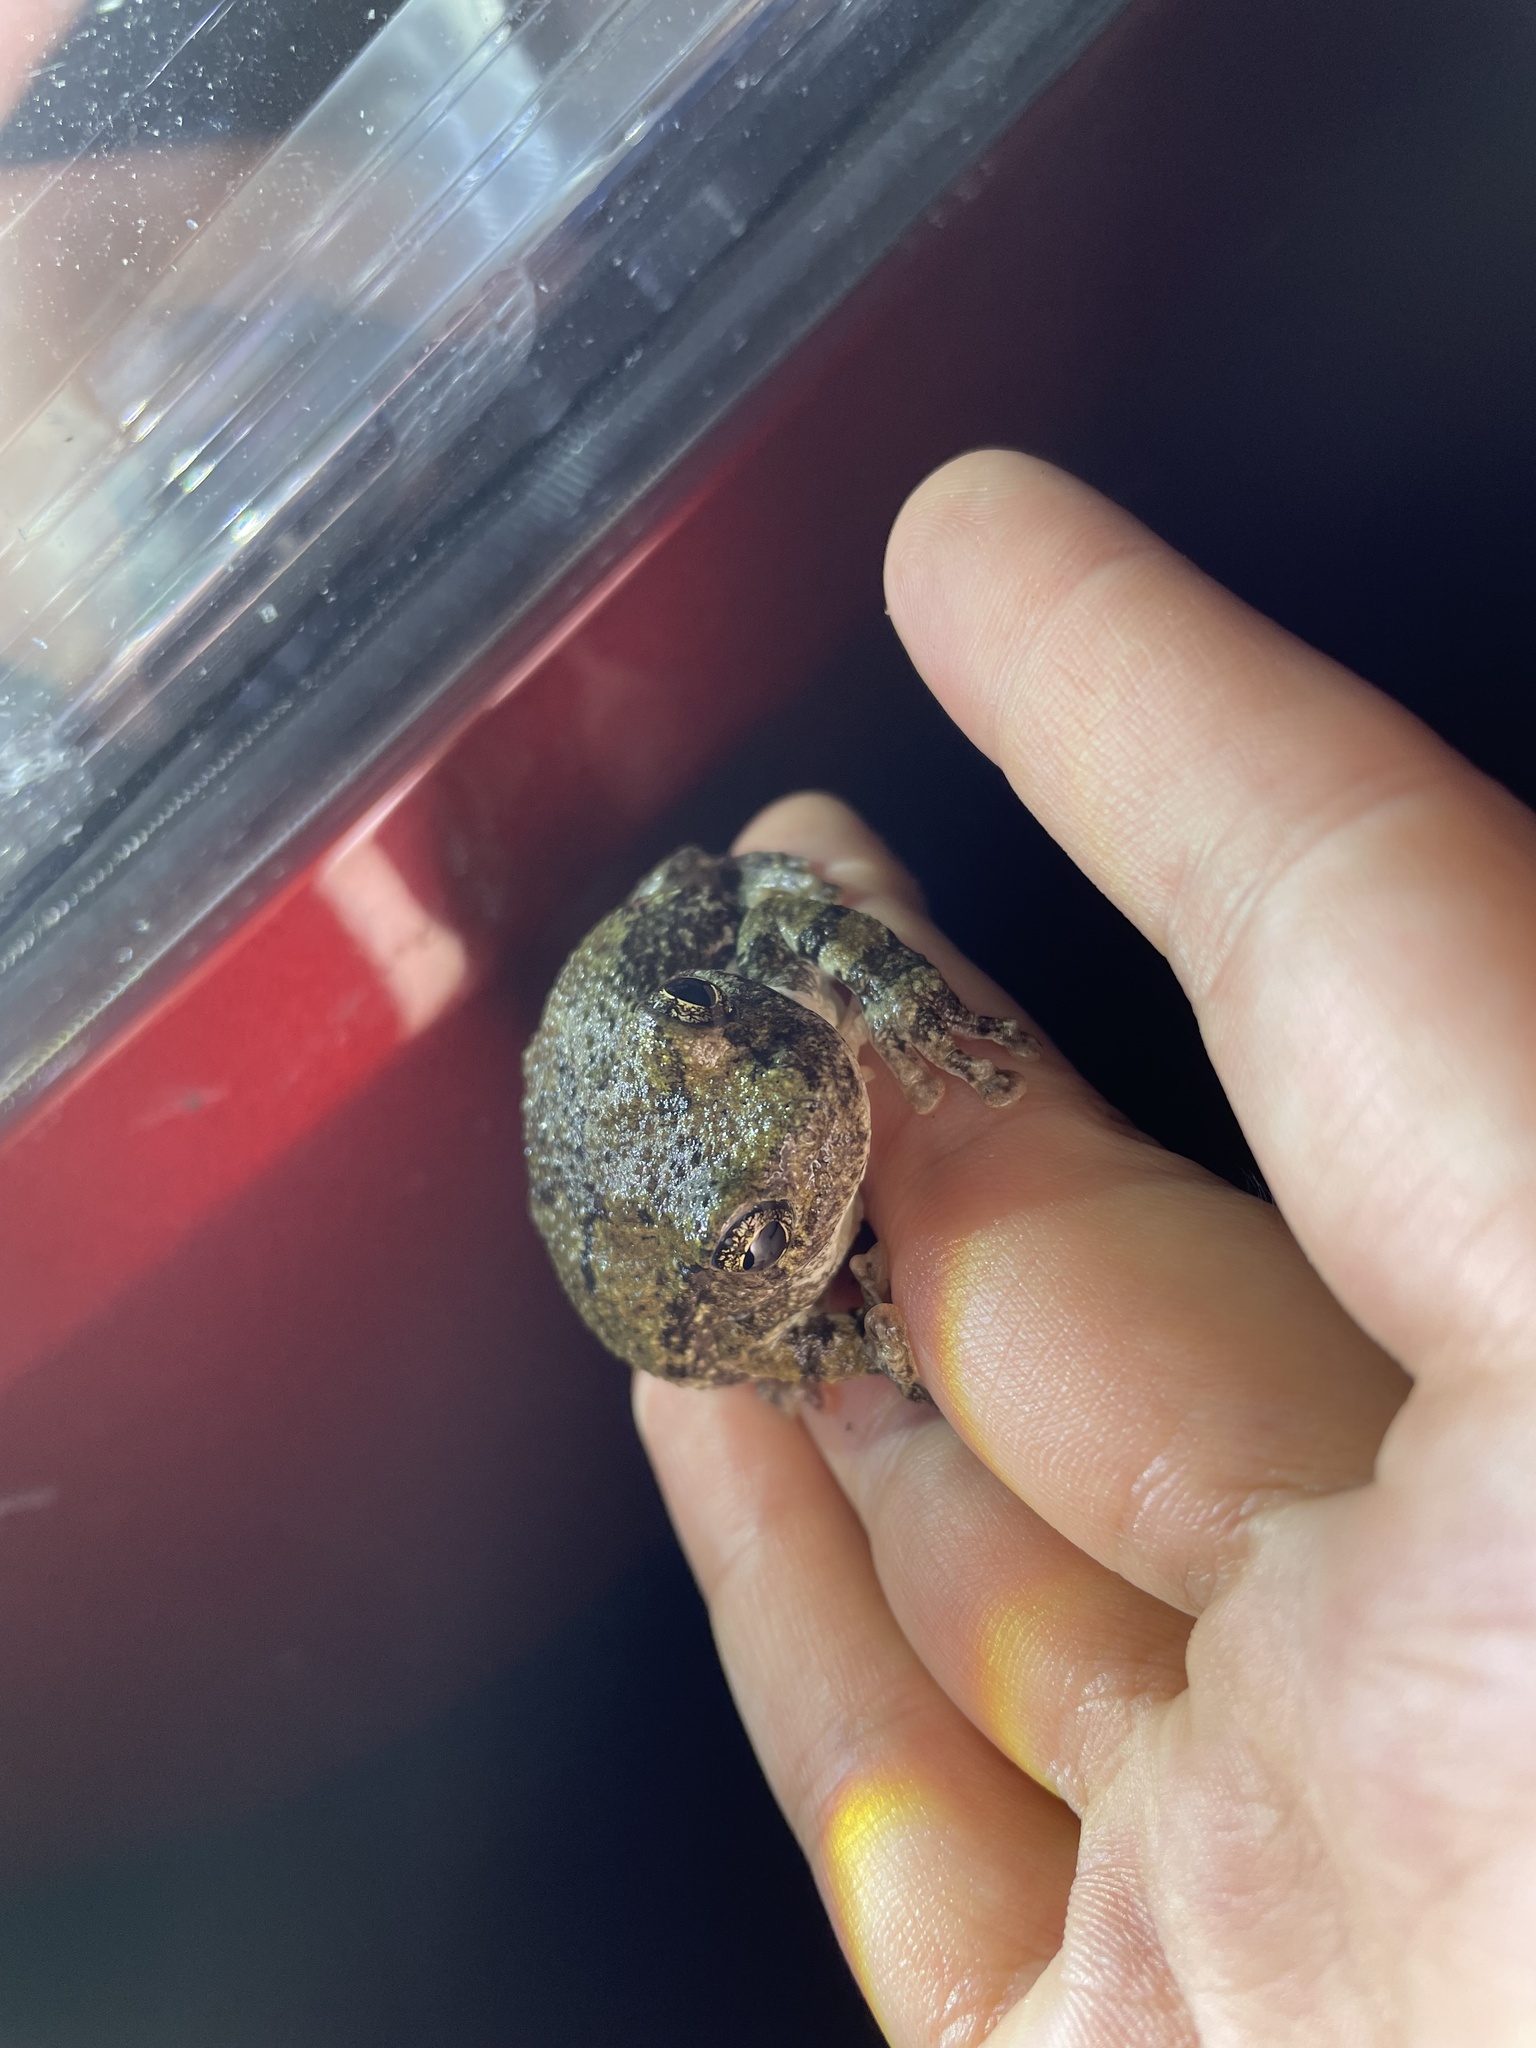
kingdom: Animalia
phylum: Chordata
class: Amphibia
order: Anura
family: Hylidae
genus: Dryophytes
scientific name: Dryophytes chrysoscelis
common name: Cope's gray treefrog
